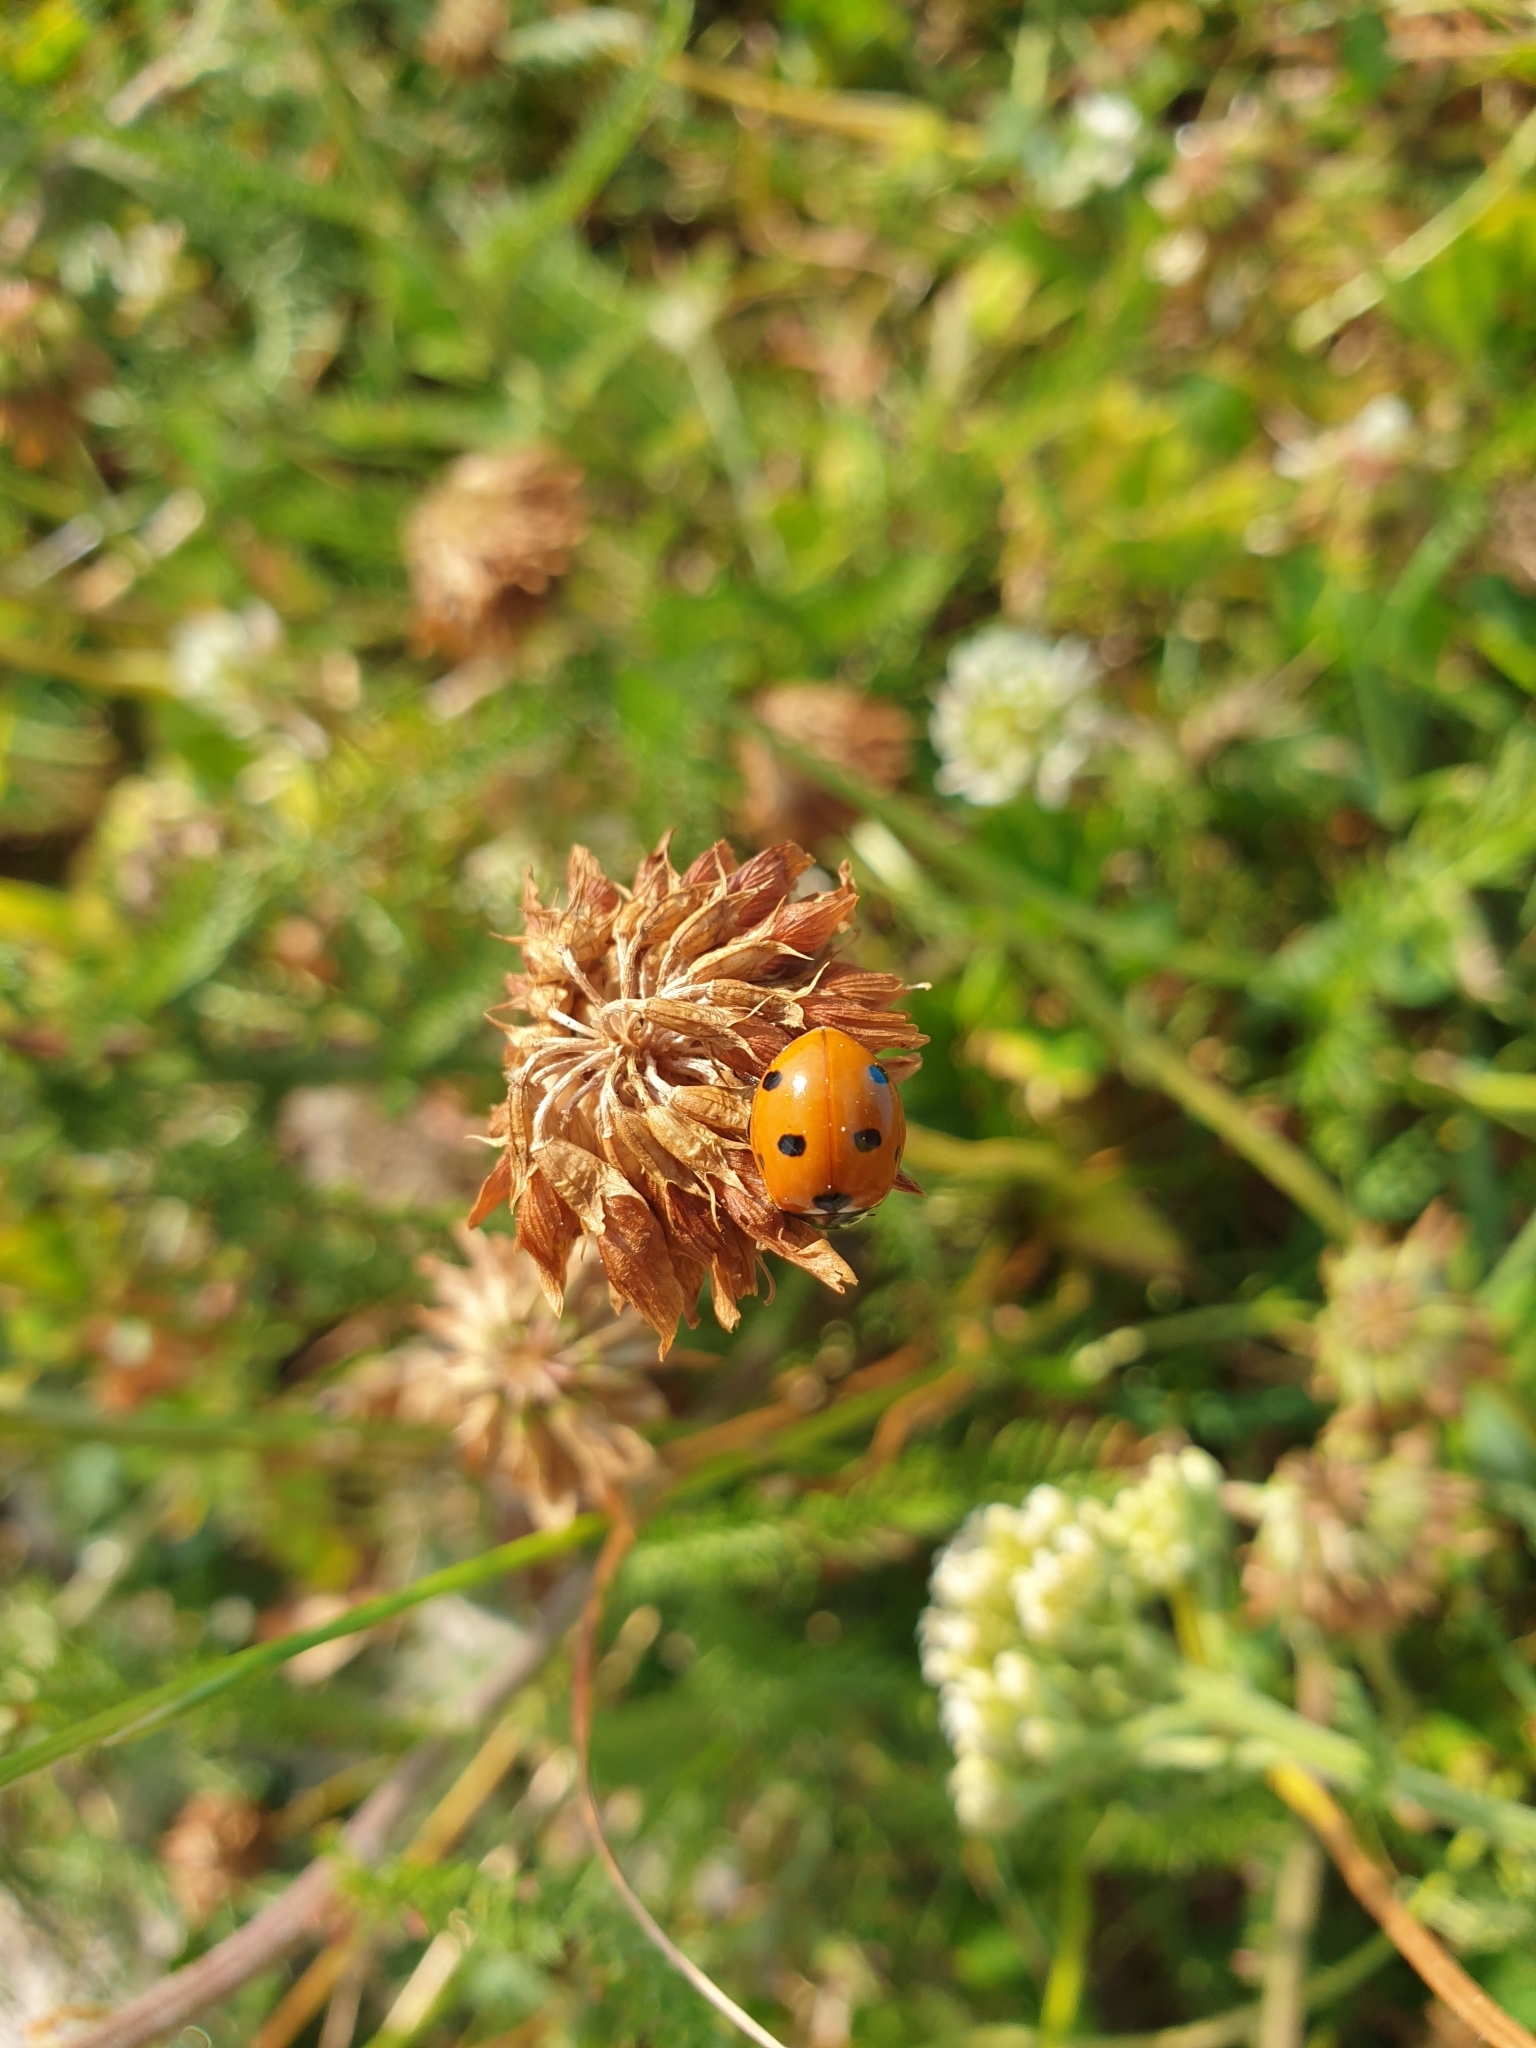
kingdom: Animalia
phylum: Arthropoda
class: Insecta
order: Coleoptera
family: Coccinellidae
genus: Coccinella
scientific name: Coccinella septempunctata
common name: Sevenspotted lady beetle
